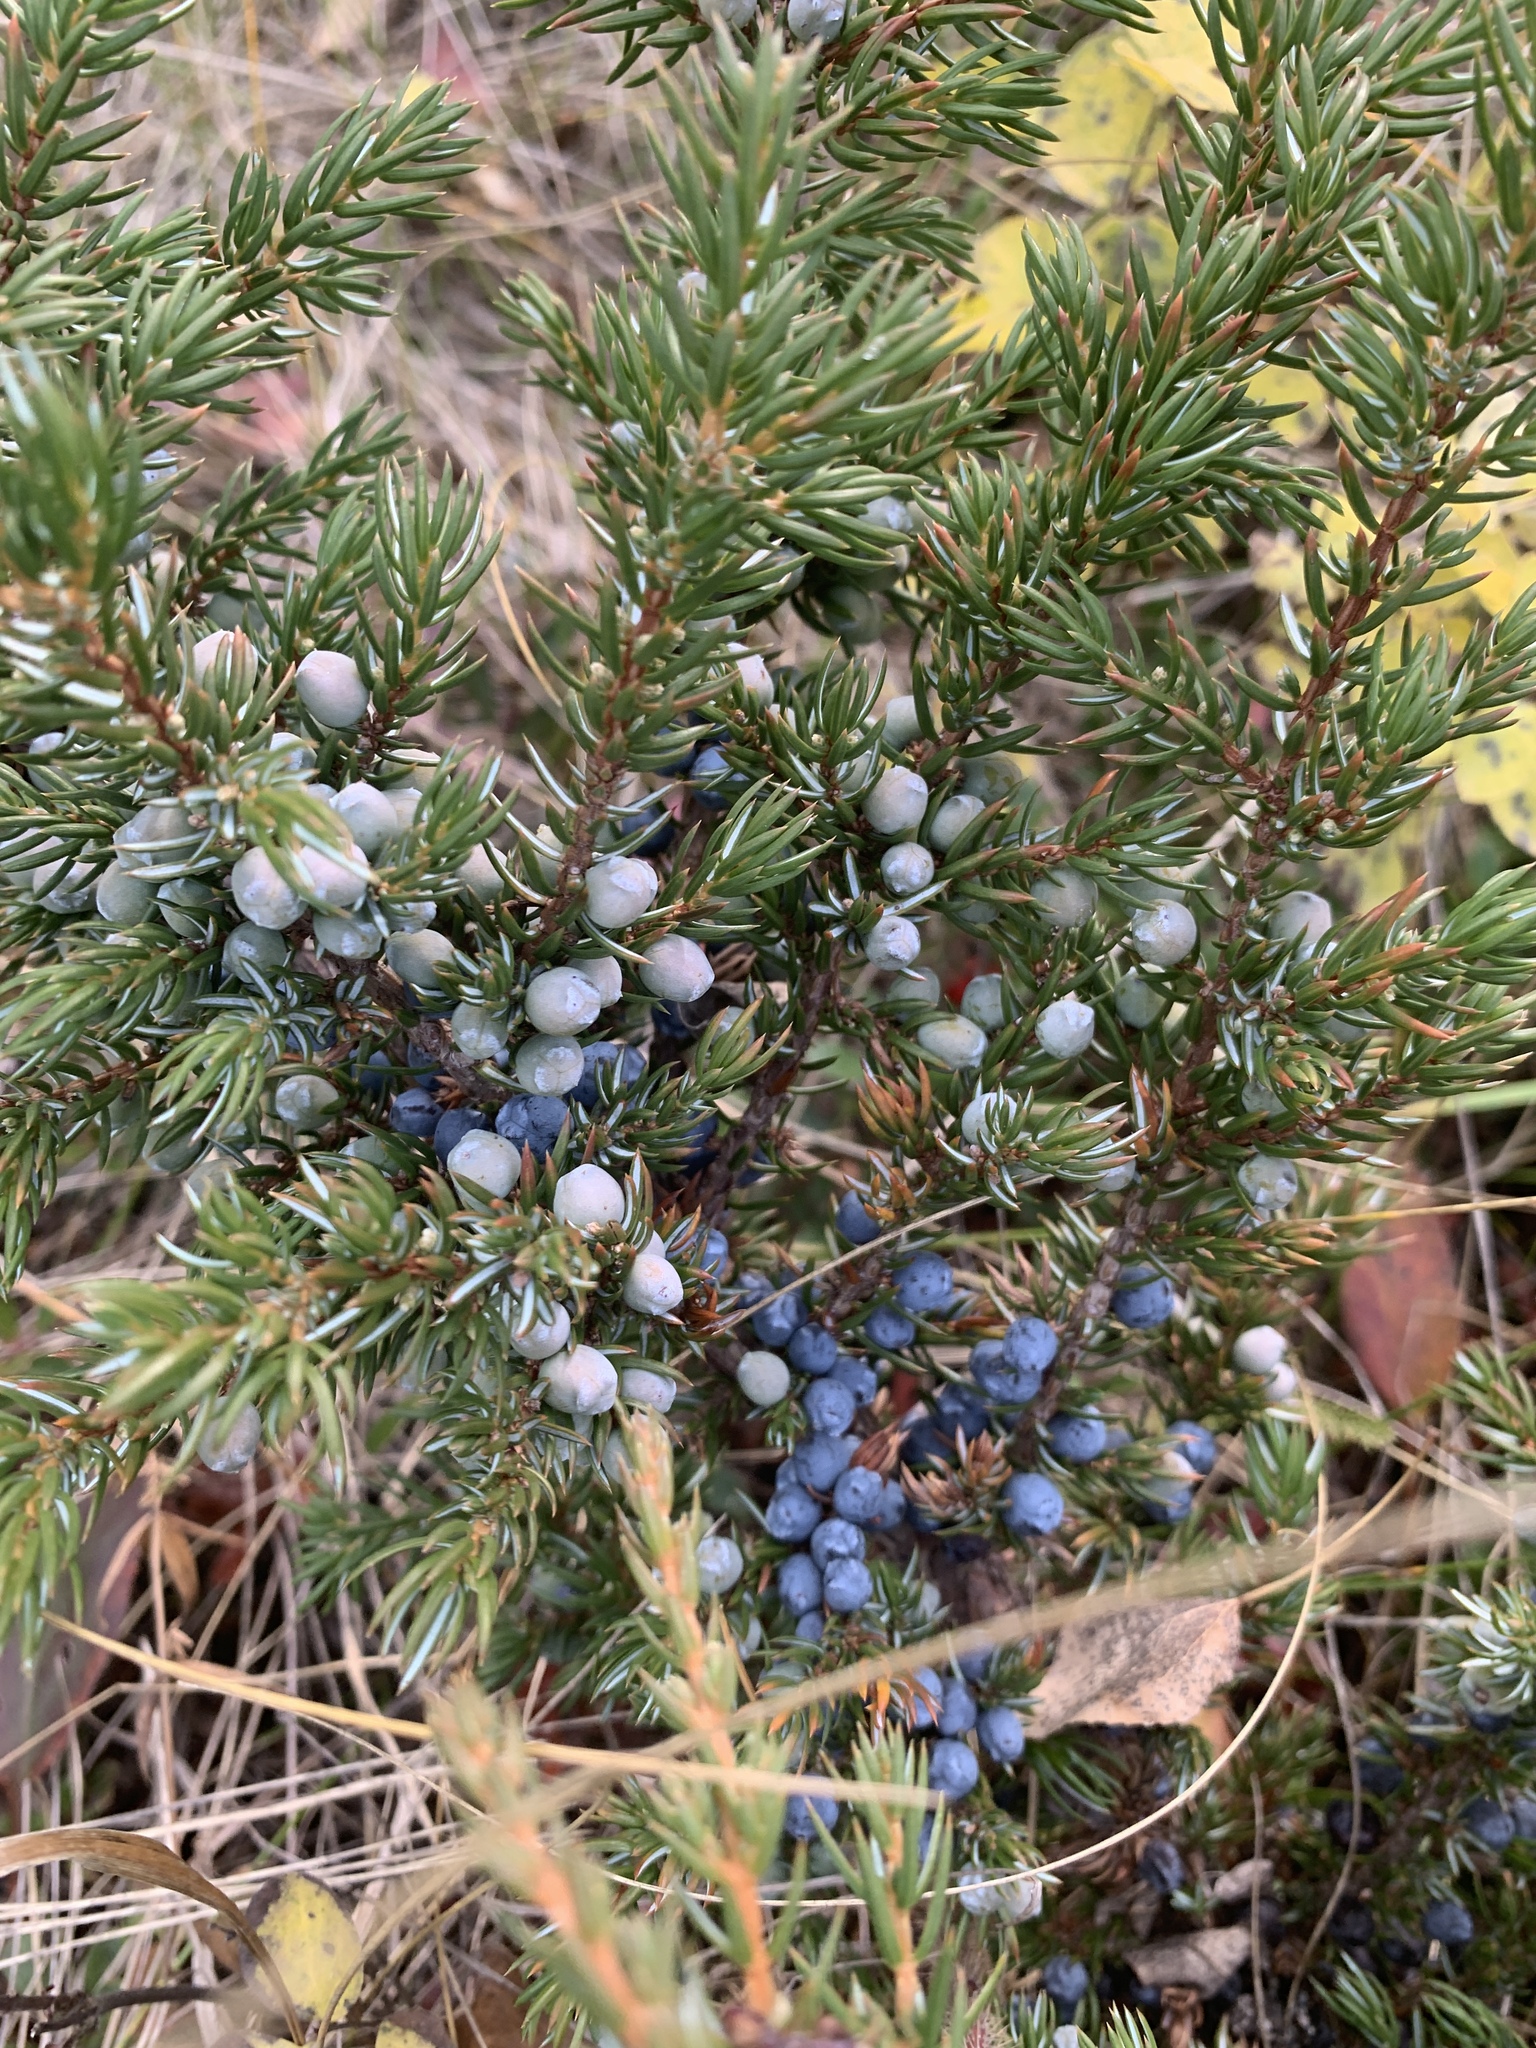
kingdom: Plantae
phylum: Tracheophyta
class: Pinopsida
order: Pinales
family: Cupressaceae
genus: Juniperus
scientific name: Juniperus communis
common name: Common juniper
